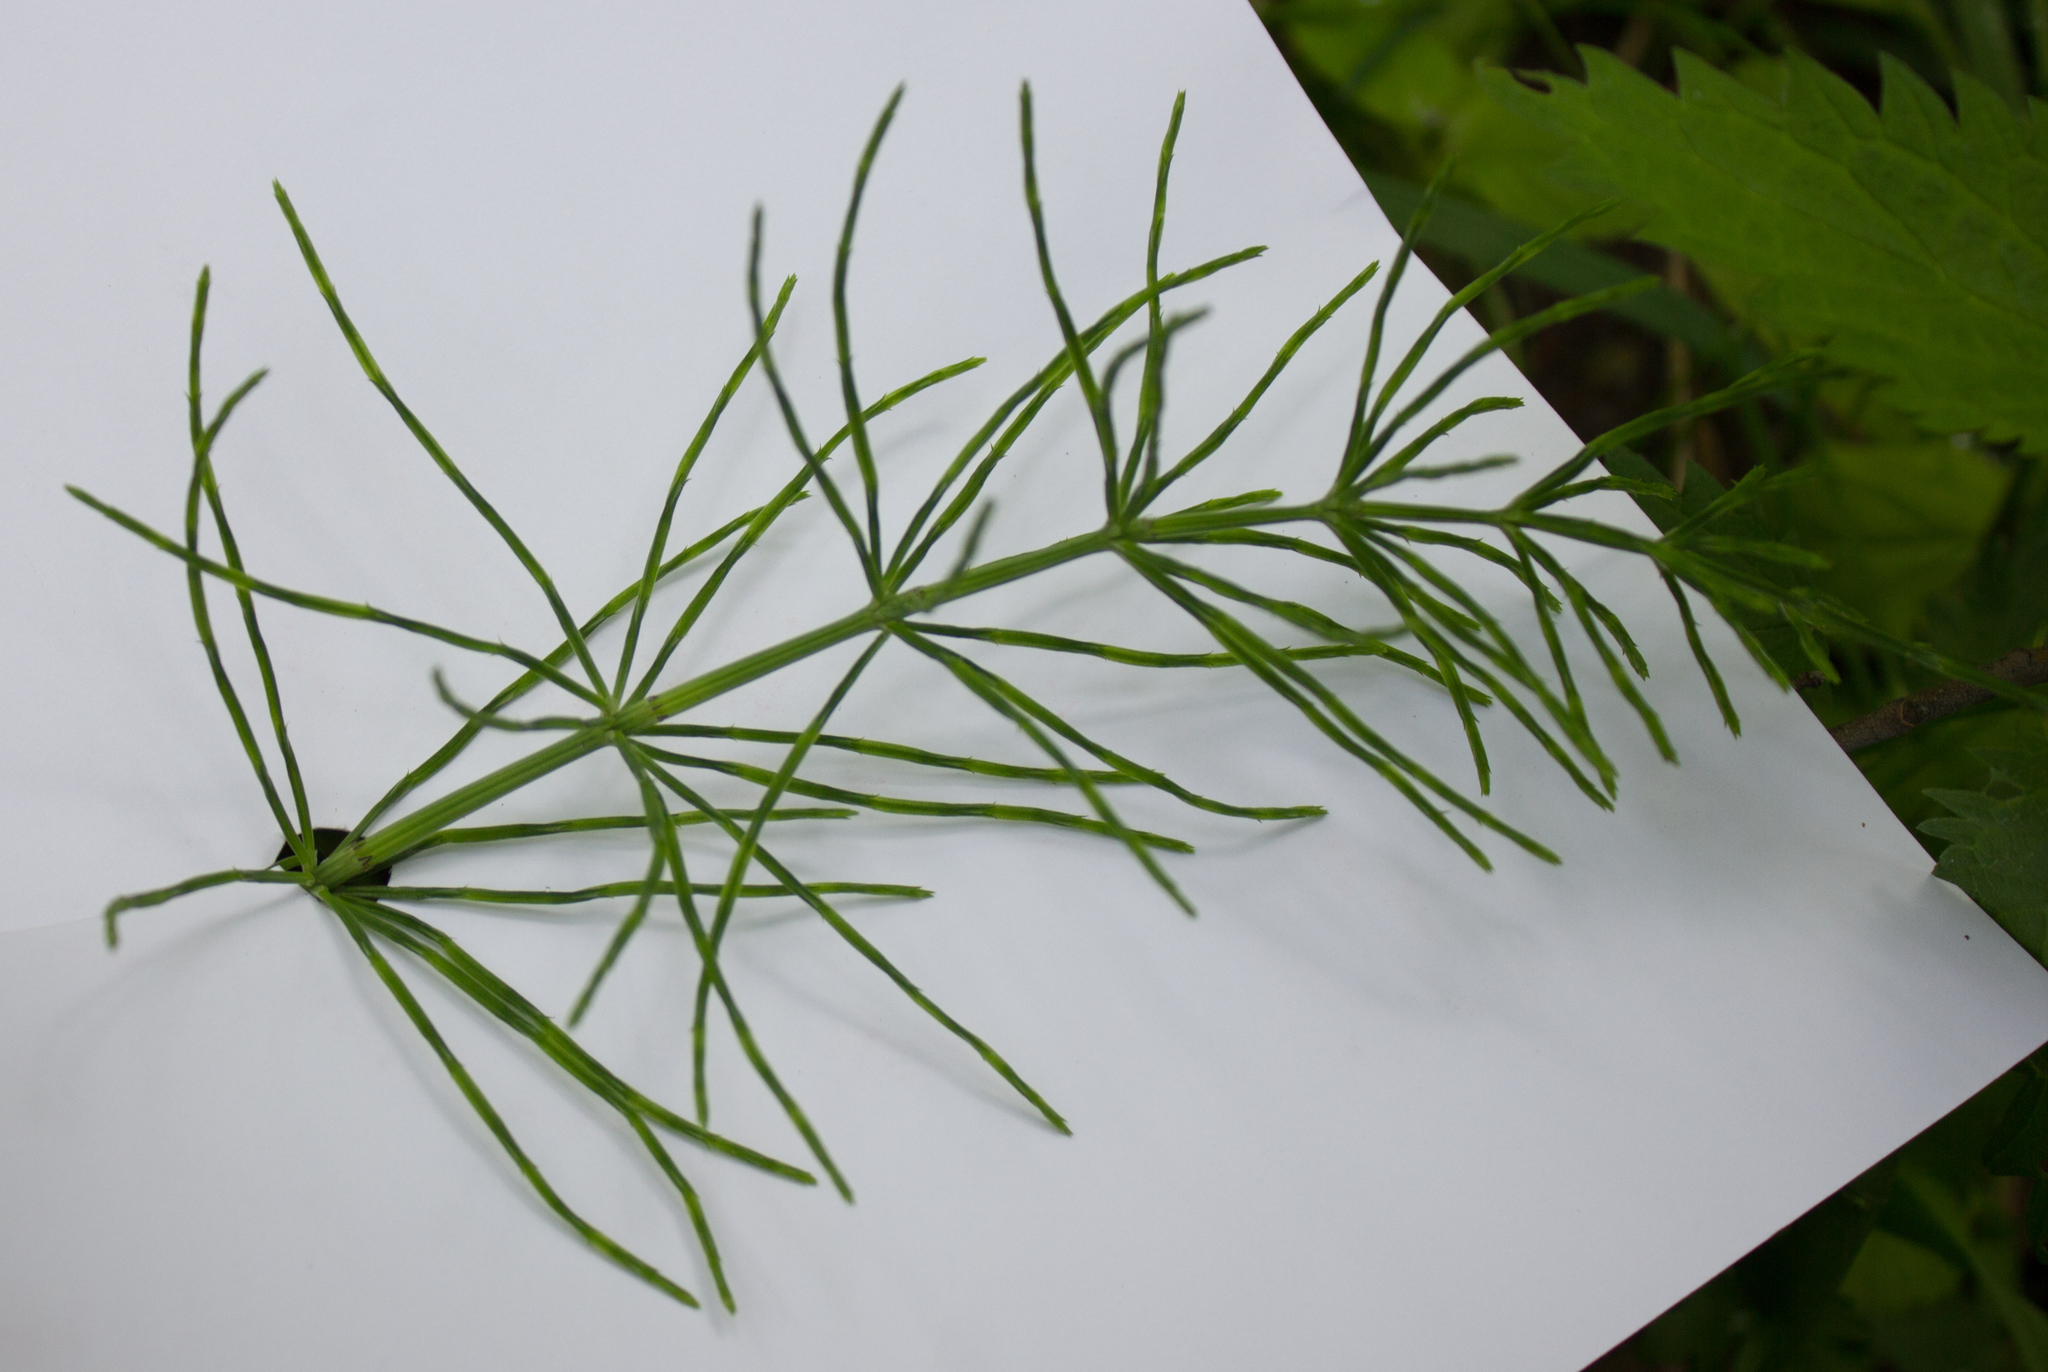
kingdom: Plantae
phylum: Tracheophyta
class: Polypodiopsida
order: Equisetales
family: Equisetaceae
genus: Equisetum
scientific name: Equisetum arvense
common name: Field horsetail
